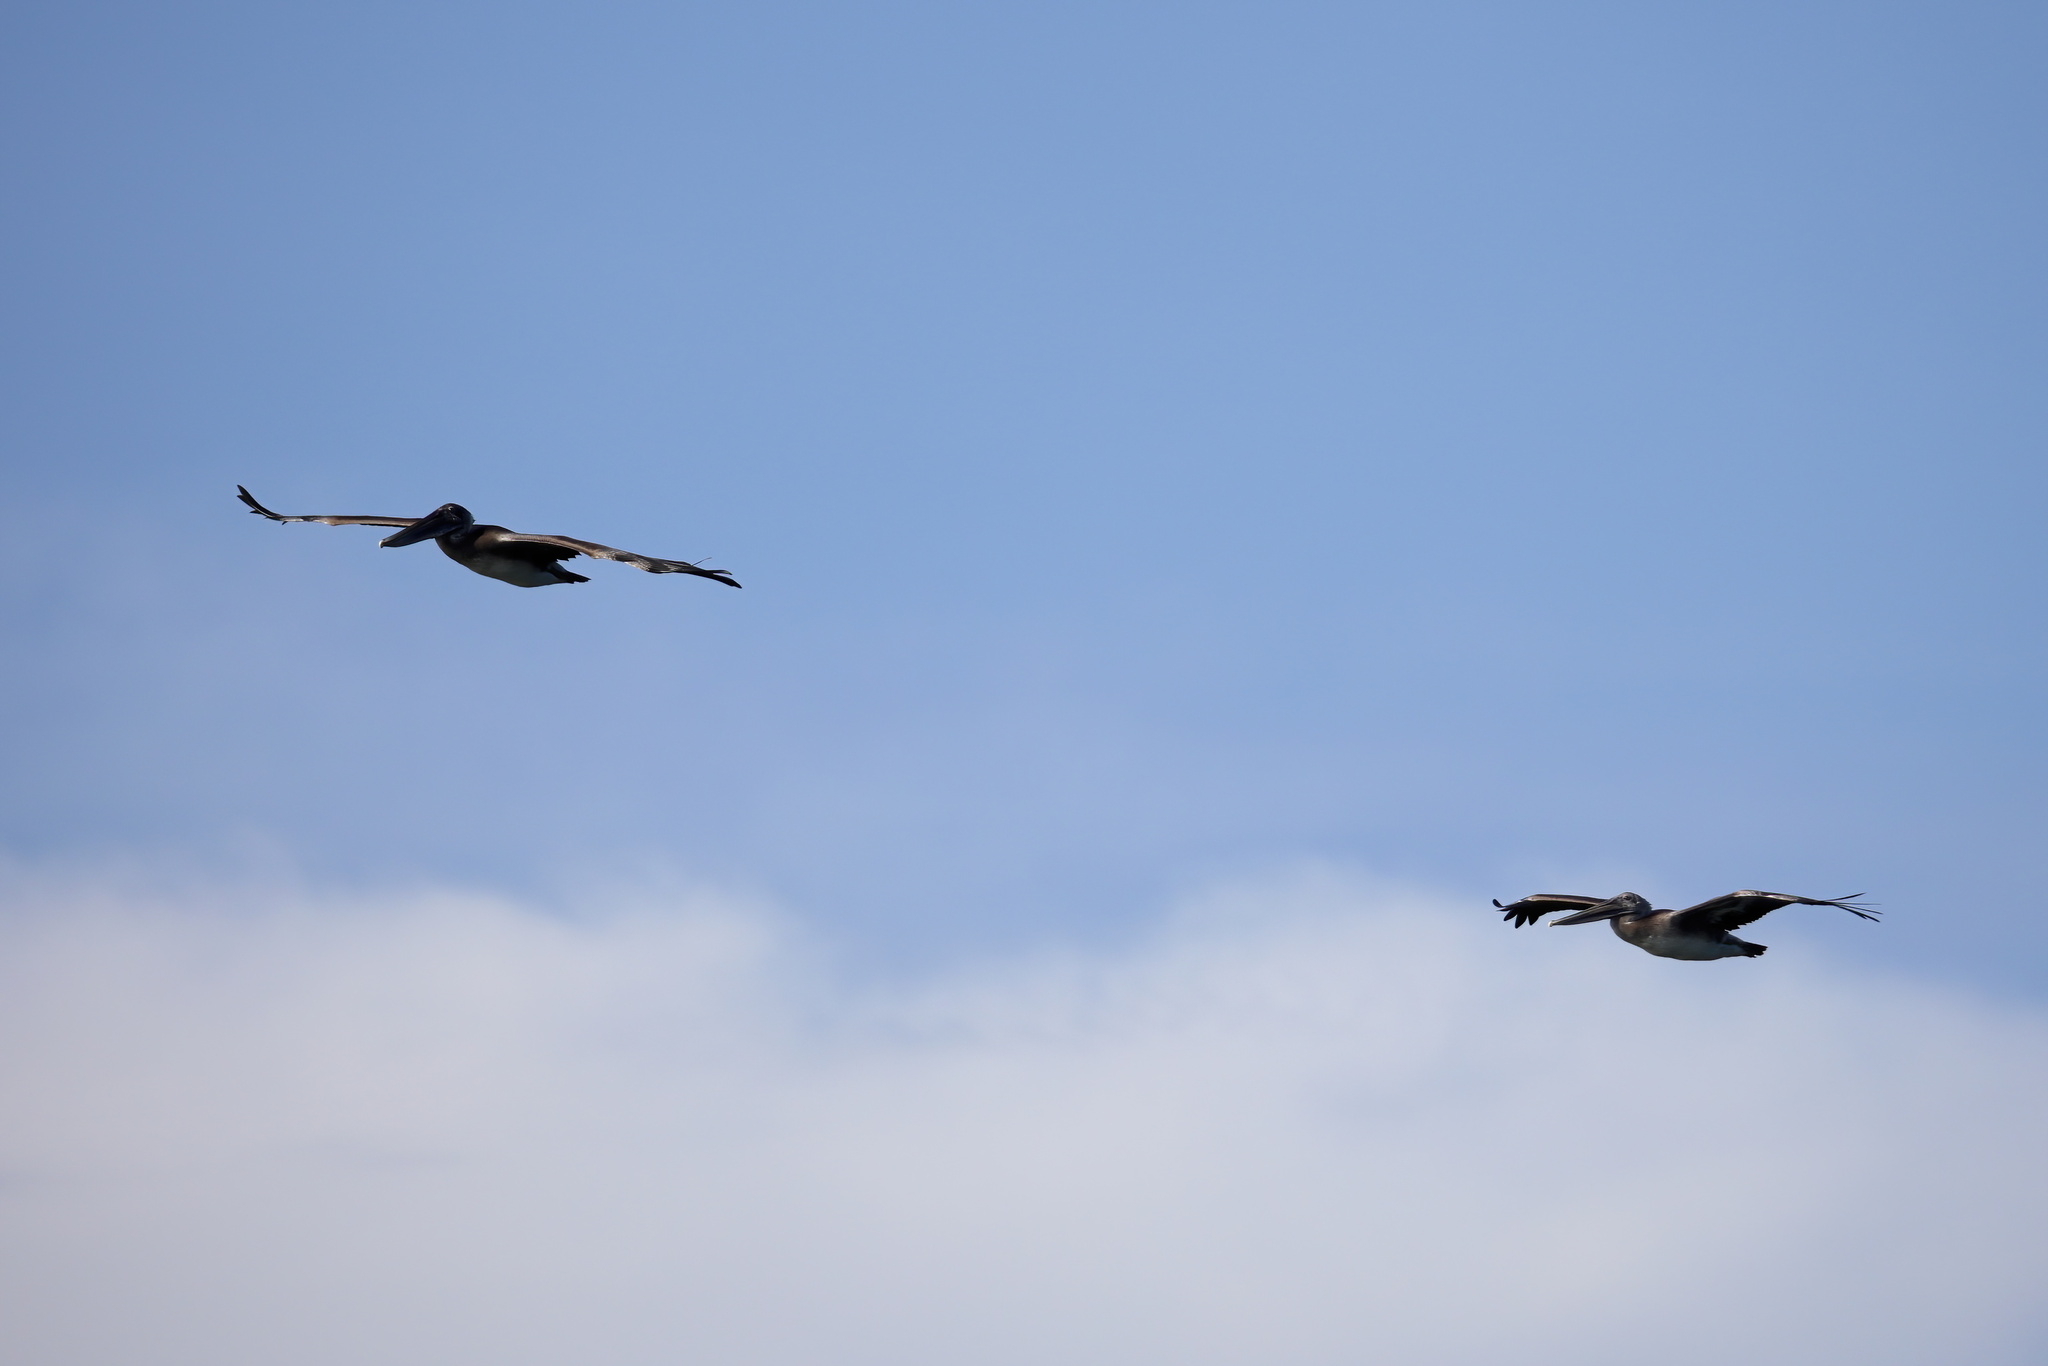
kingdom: Animalia
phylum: Chordata
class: Aves
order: Pelecaniformes
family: Pelecanidae
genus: Pelecanus
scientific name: Pelecanus occidentalis
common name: Brown pelican
